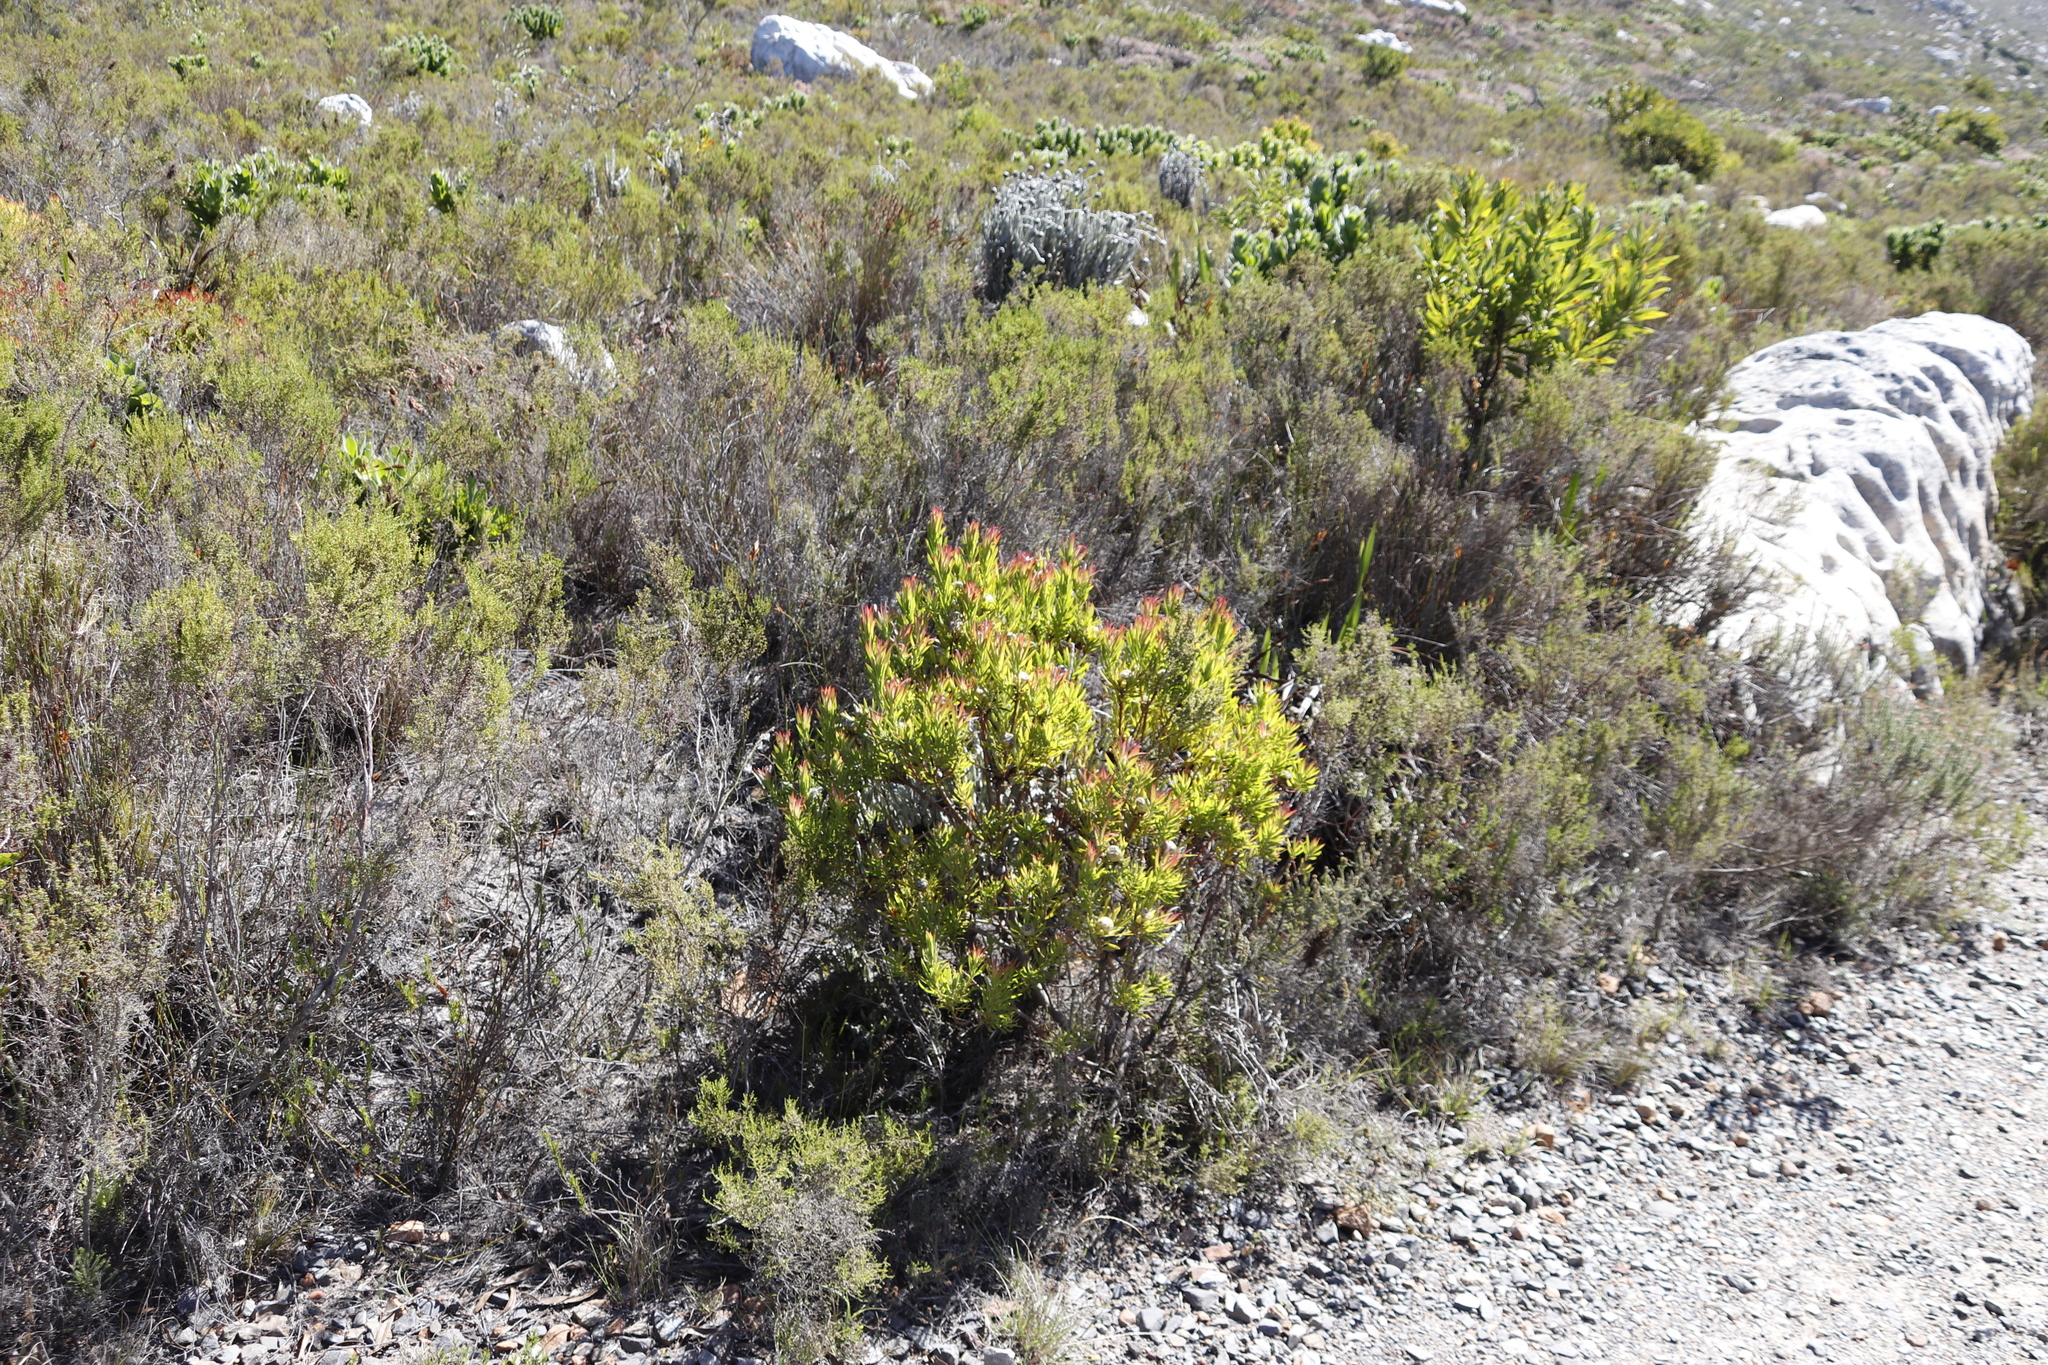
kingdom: Plantae
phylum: Tracheophyta
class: Magnoliopsida
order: Proteales
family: Proteaceae
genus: Leucadendron
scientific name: Leucadendron xanthoconus
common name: Sickle-leaf conebush
